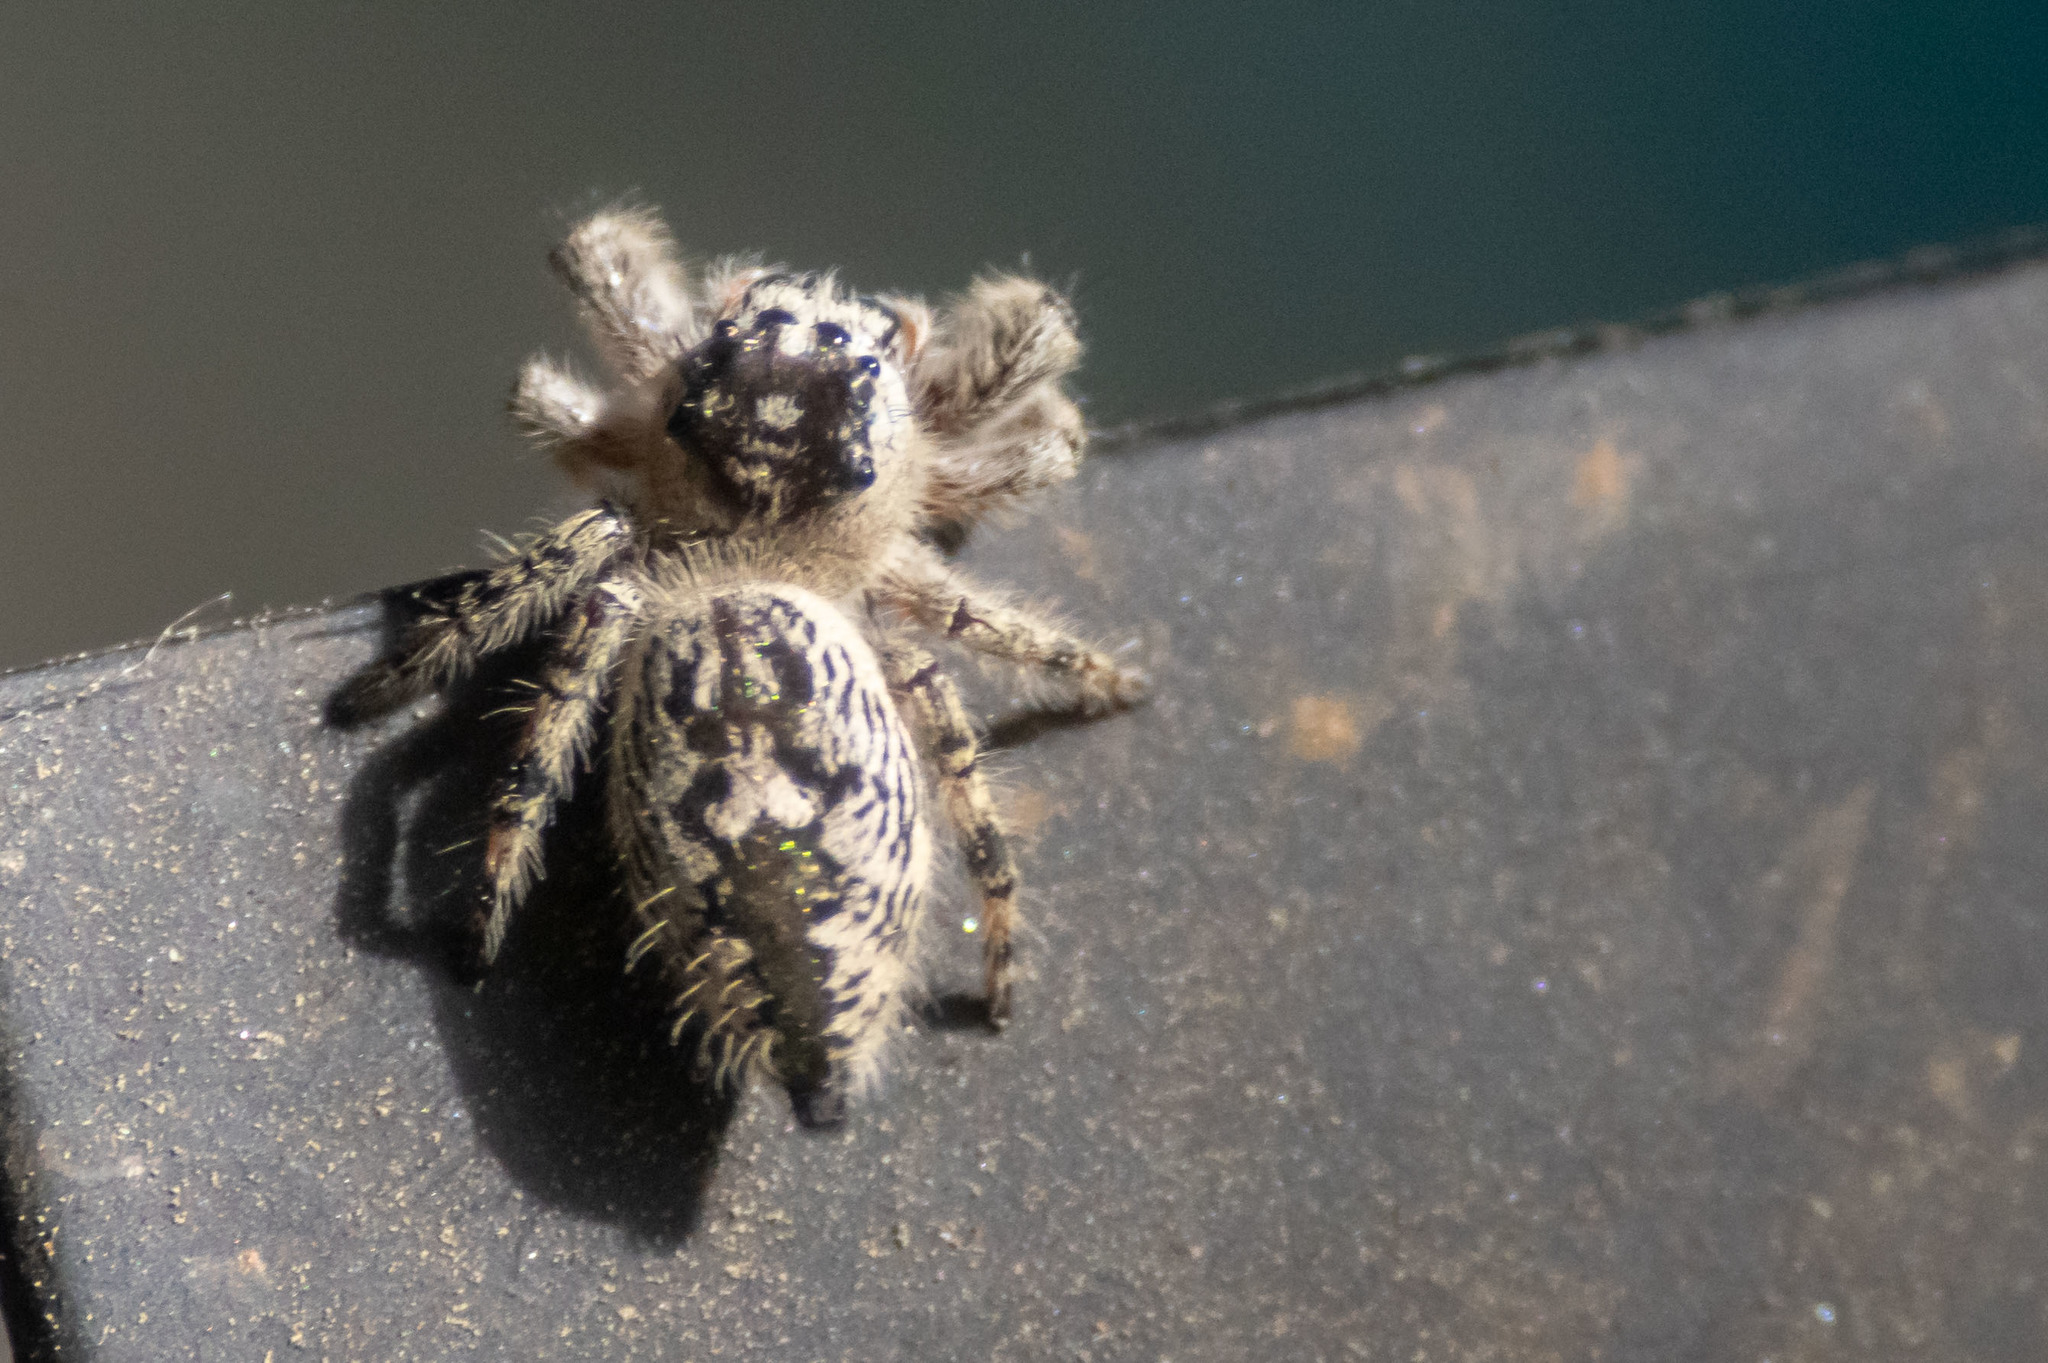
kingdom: Animalia
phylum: Arthropoda
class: Arachnida
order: Araneae
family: Salticidae
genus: Phidippus
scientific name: Phidippus otiosus
